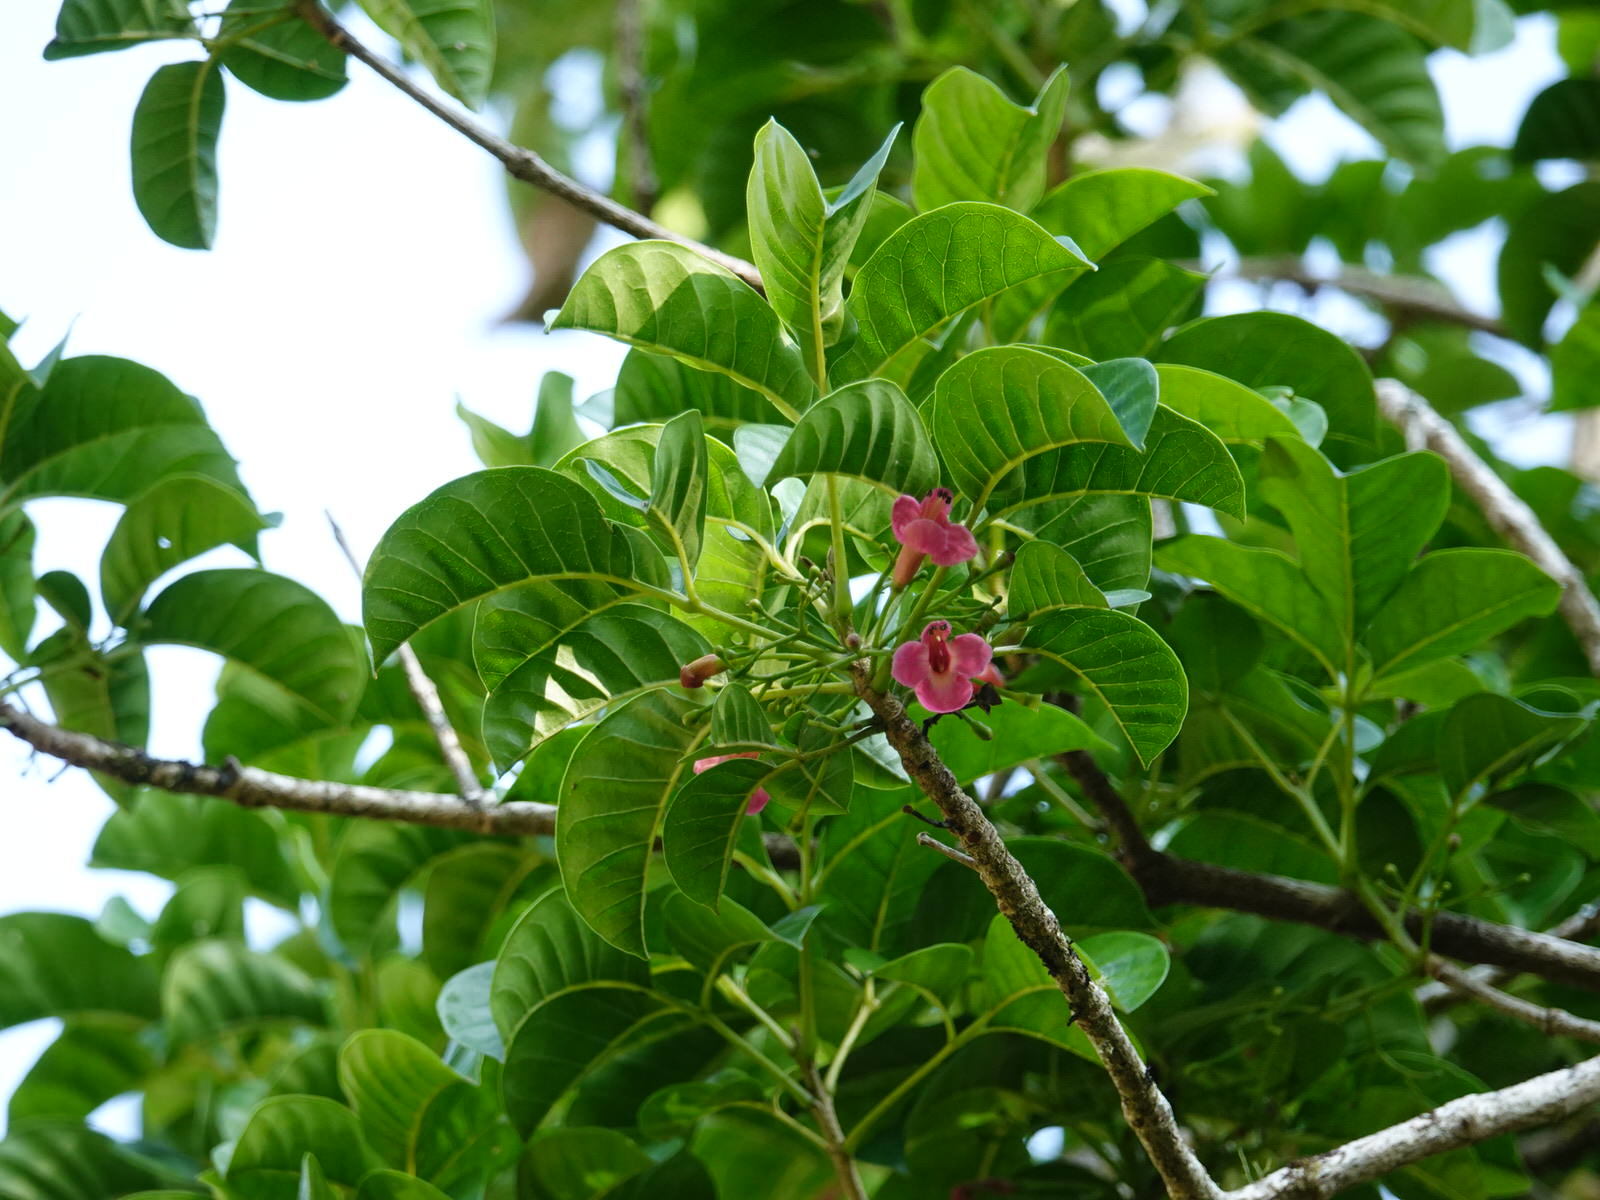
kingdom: Plantae
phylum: Tracheophyta
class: Magnoliopsida
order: Lamiales
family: Lamiaceae
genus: Vitex
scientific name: Vitex lucens
